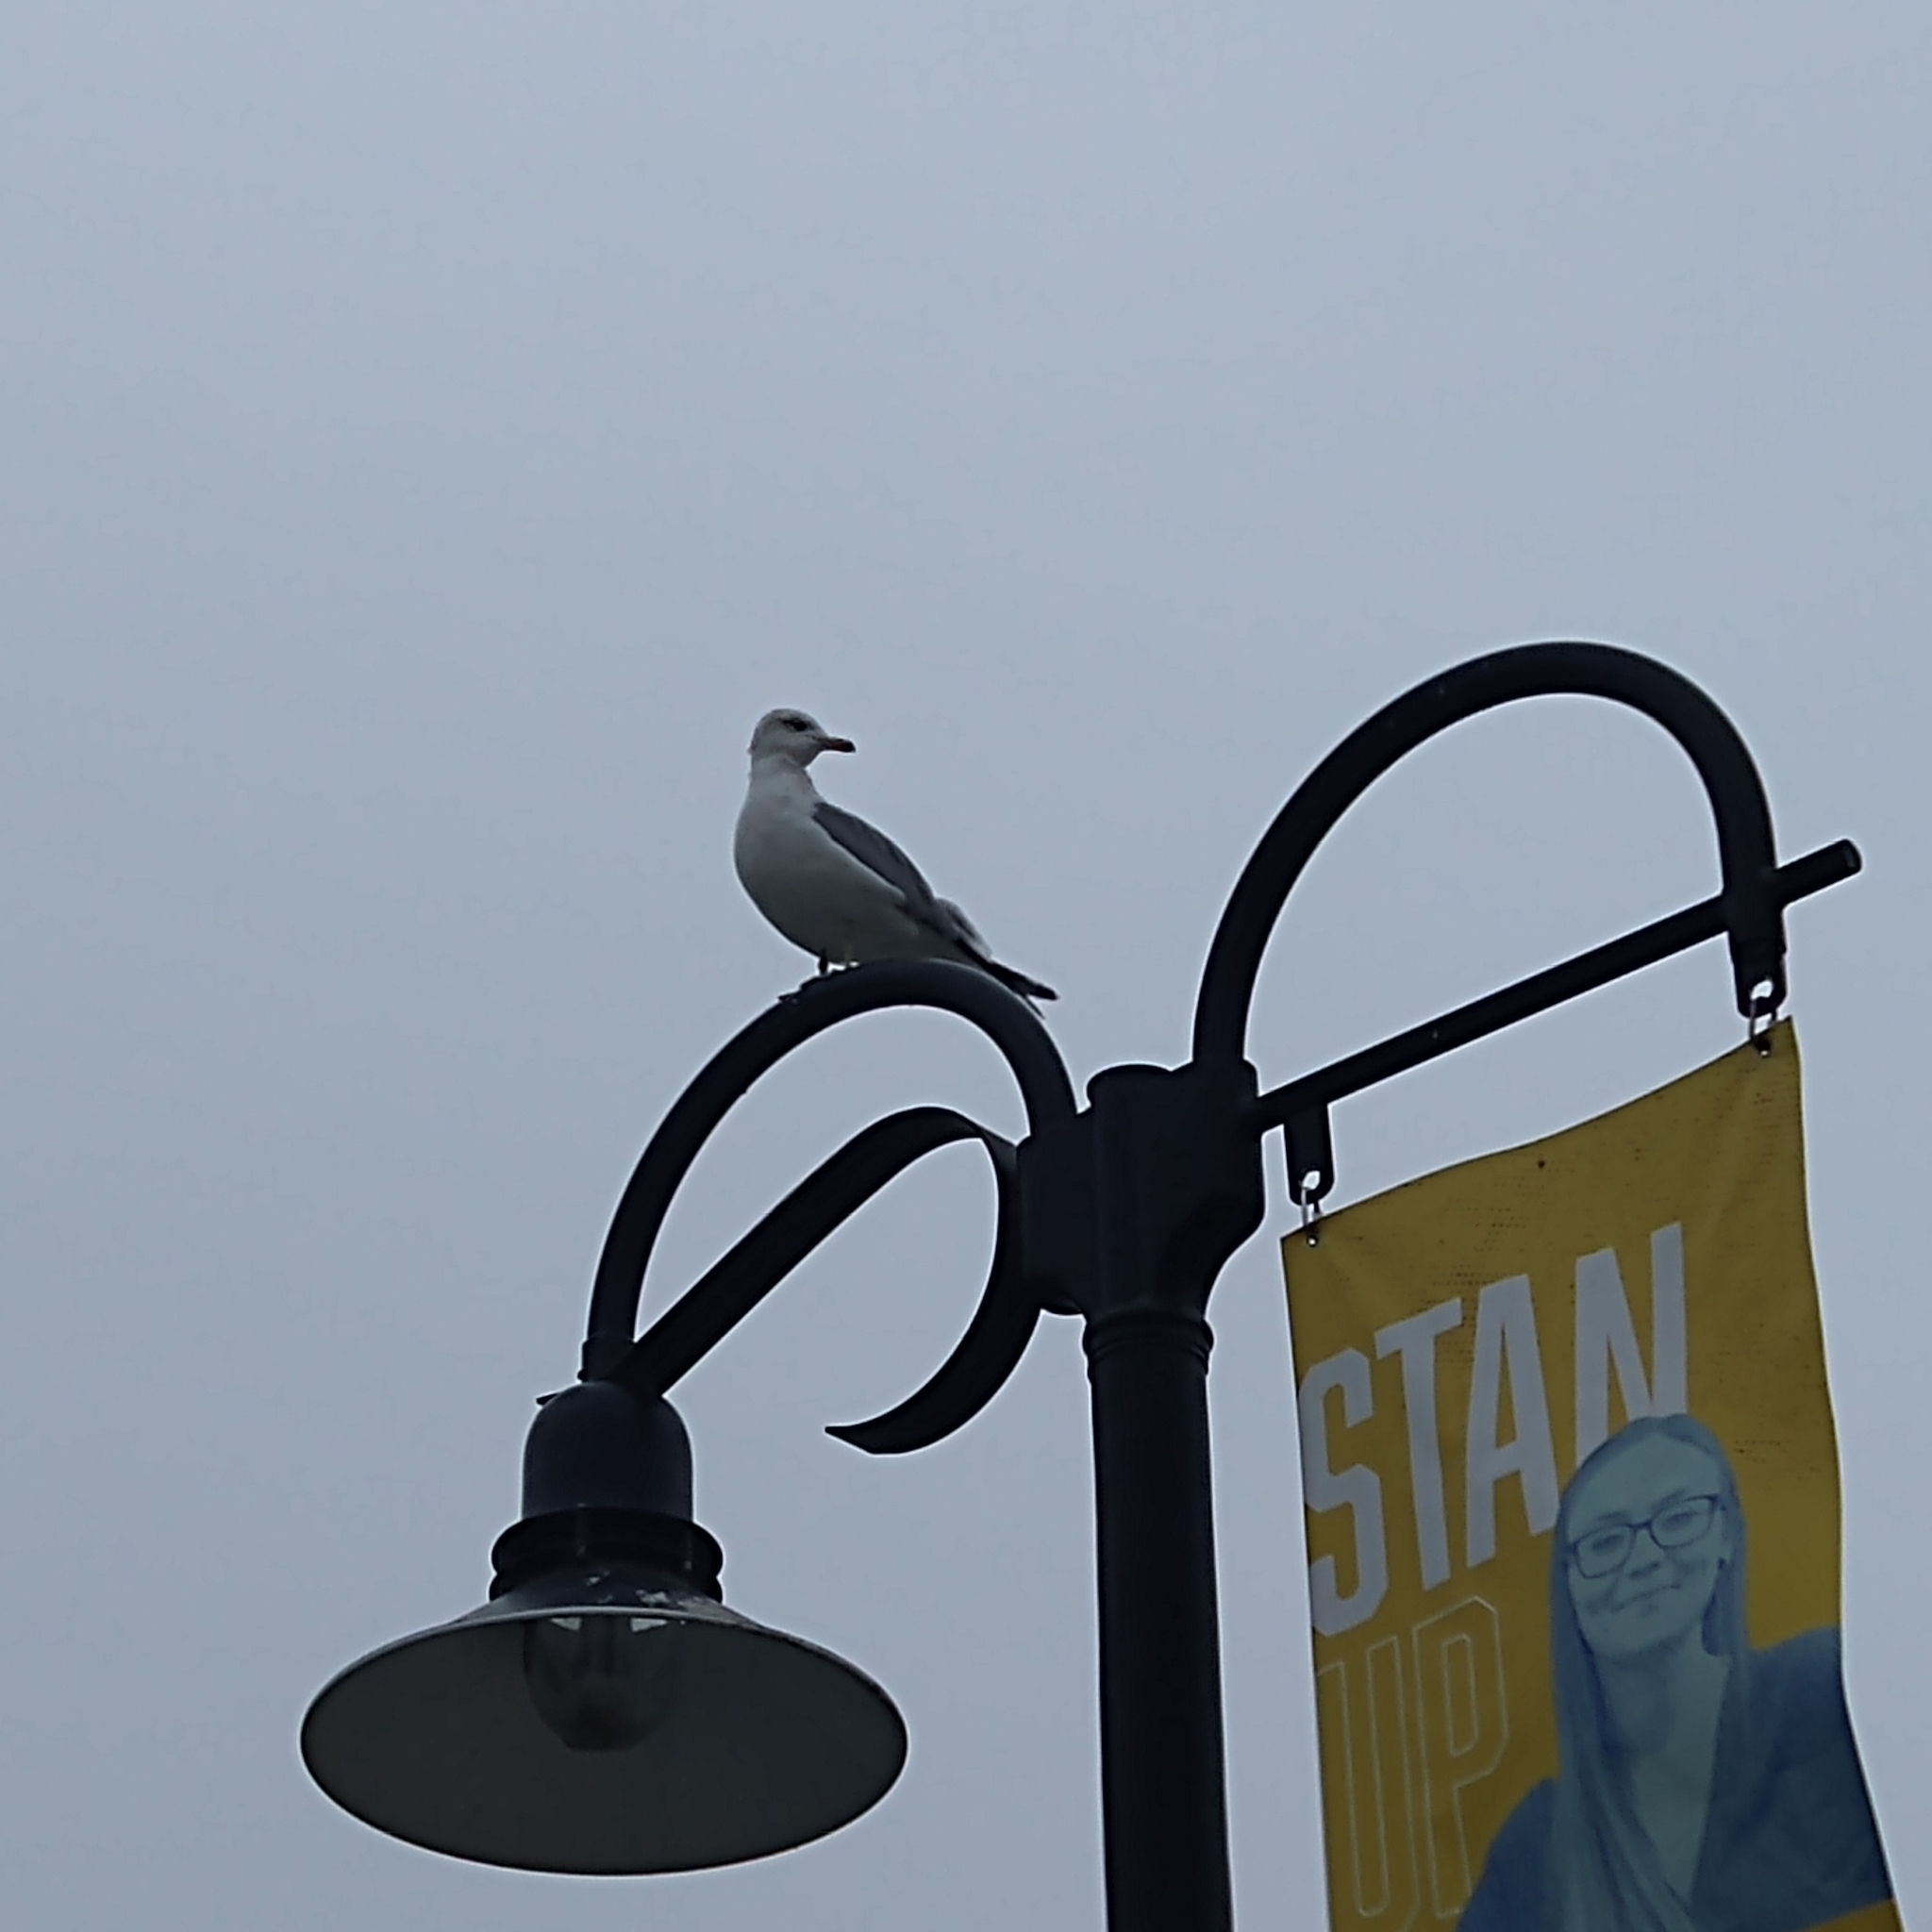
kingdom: Animalia
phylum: Chordata
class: Aves
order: Charadriiformes
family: Laridae
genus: Larus
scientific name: Larus
